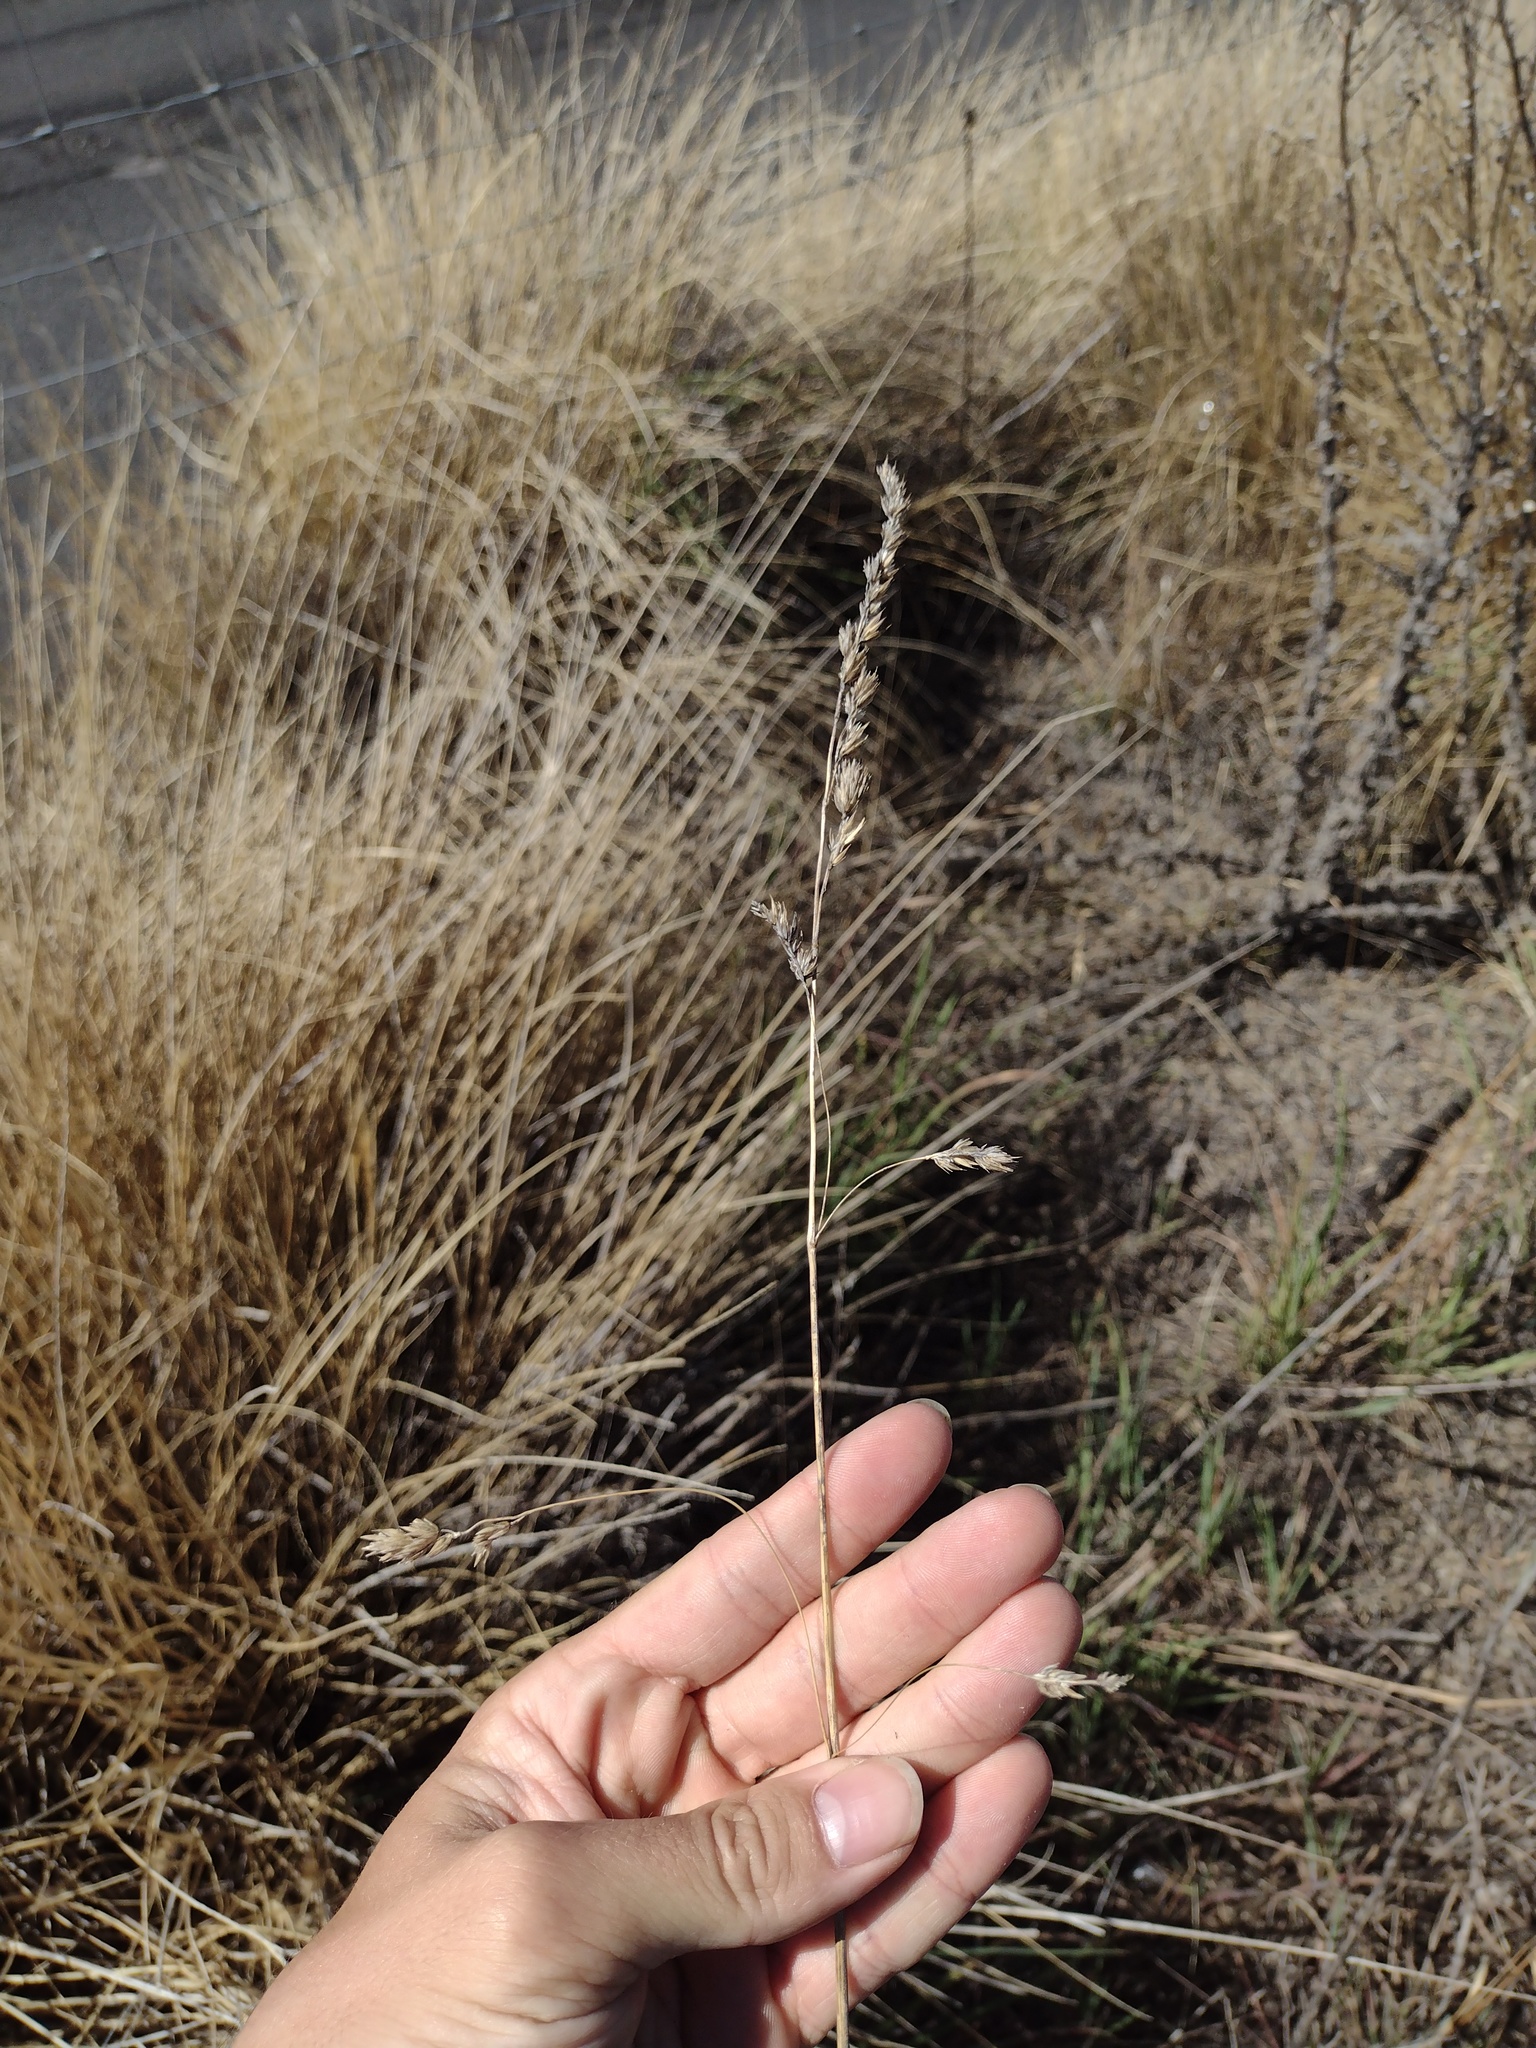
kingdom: Plantae
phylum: Tracheophyta
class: Liliopsida
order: Poales
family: Poaceae
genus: Dactylis
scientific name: Dactylis glomerata
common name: Orchardgrass
